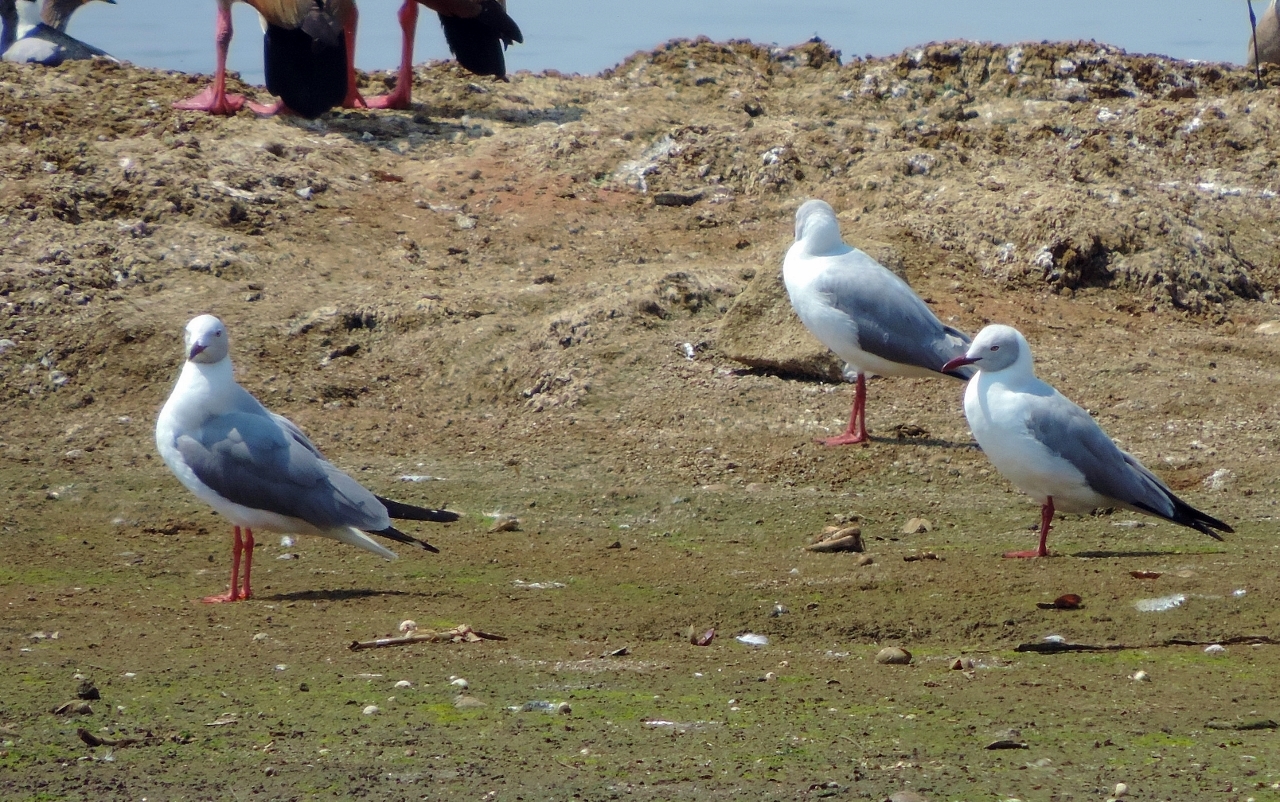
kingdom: Animalia
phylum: Chordata
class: Aves
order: Charadriiformes
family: Laridae
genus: Chroicocephalus
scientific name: Chroicocephalus cirrocephalus
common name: Grey-headed gull
